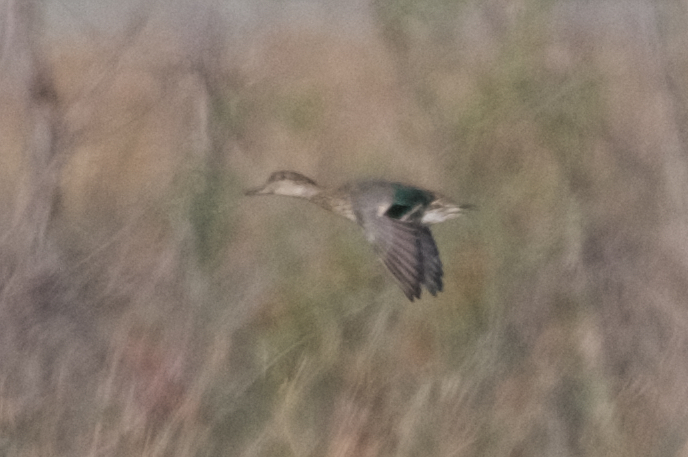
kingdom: Animalia
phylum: Chordata
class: Aves
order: Anseriformes
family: Anatidae
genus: Anas
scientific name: Anas crecca
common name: Eurasian teal
